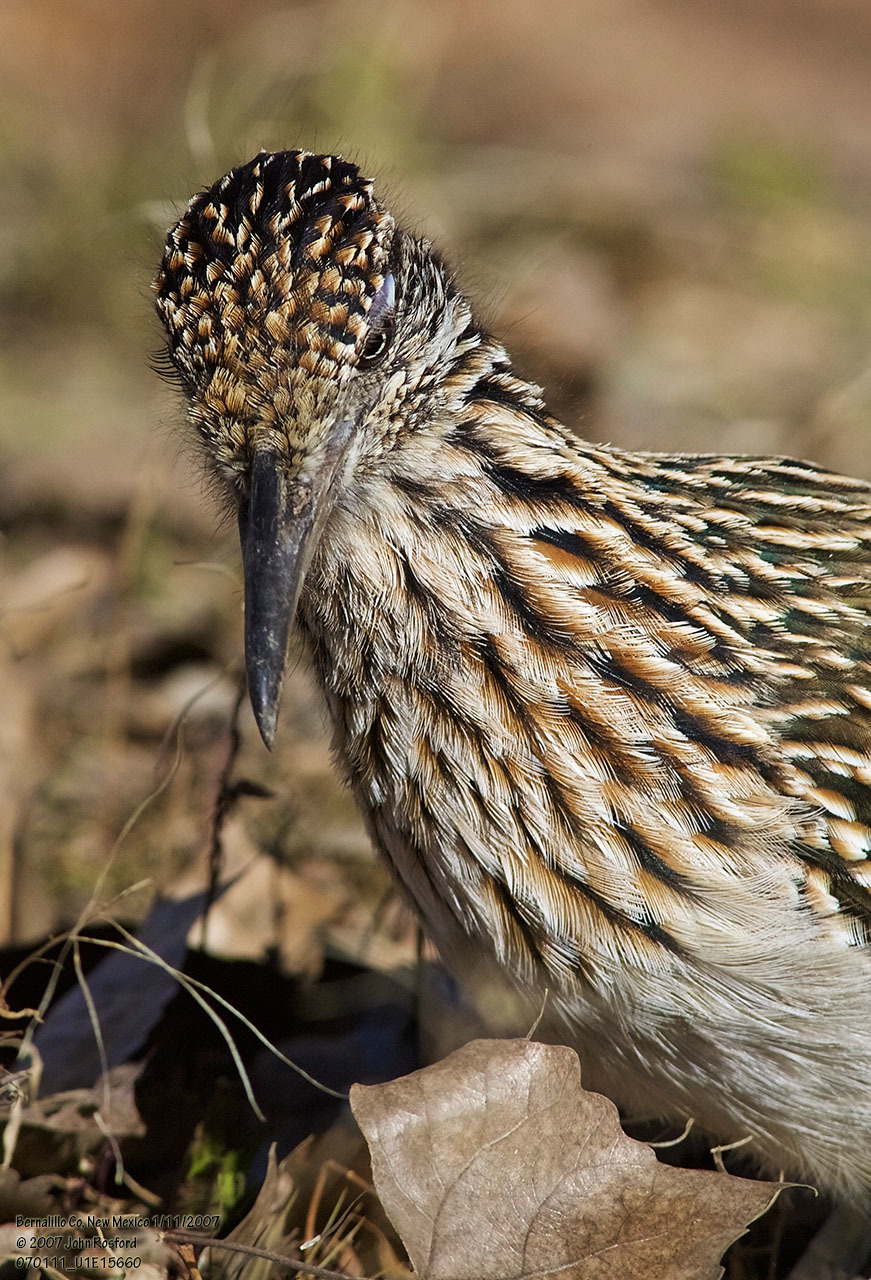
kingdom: Animalia
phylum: Chordata
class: Aves
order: Cuculiformes
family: Cuculidae
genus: Geococcyx
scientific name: Geococcyx californianus
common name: Greater roadrunner
